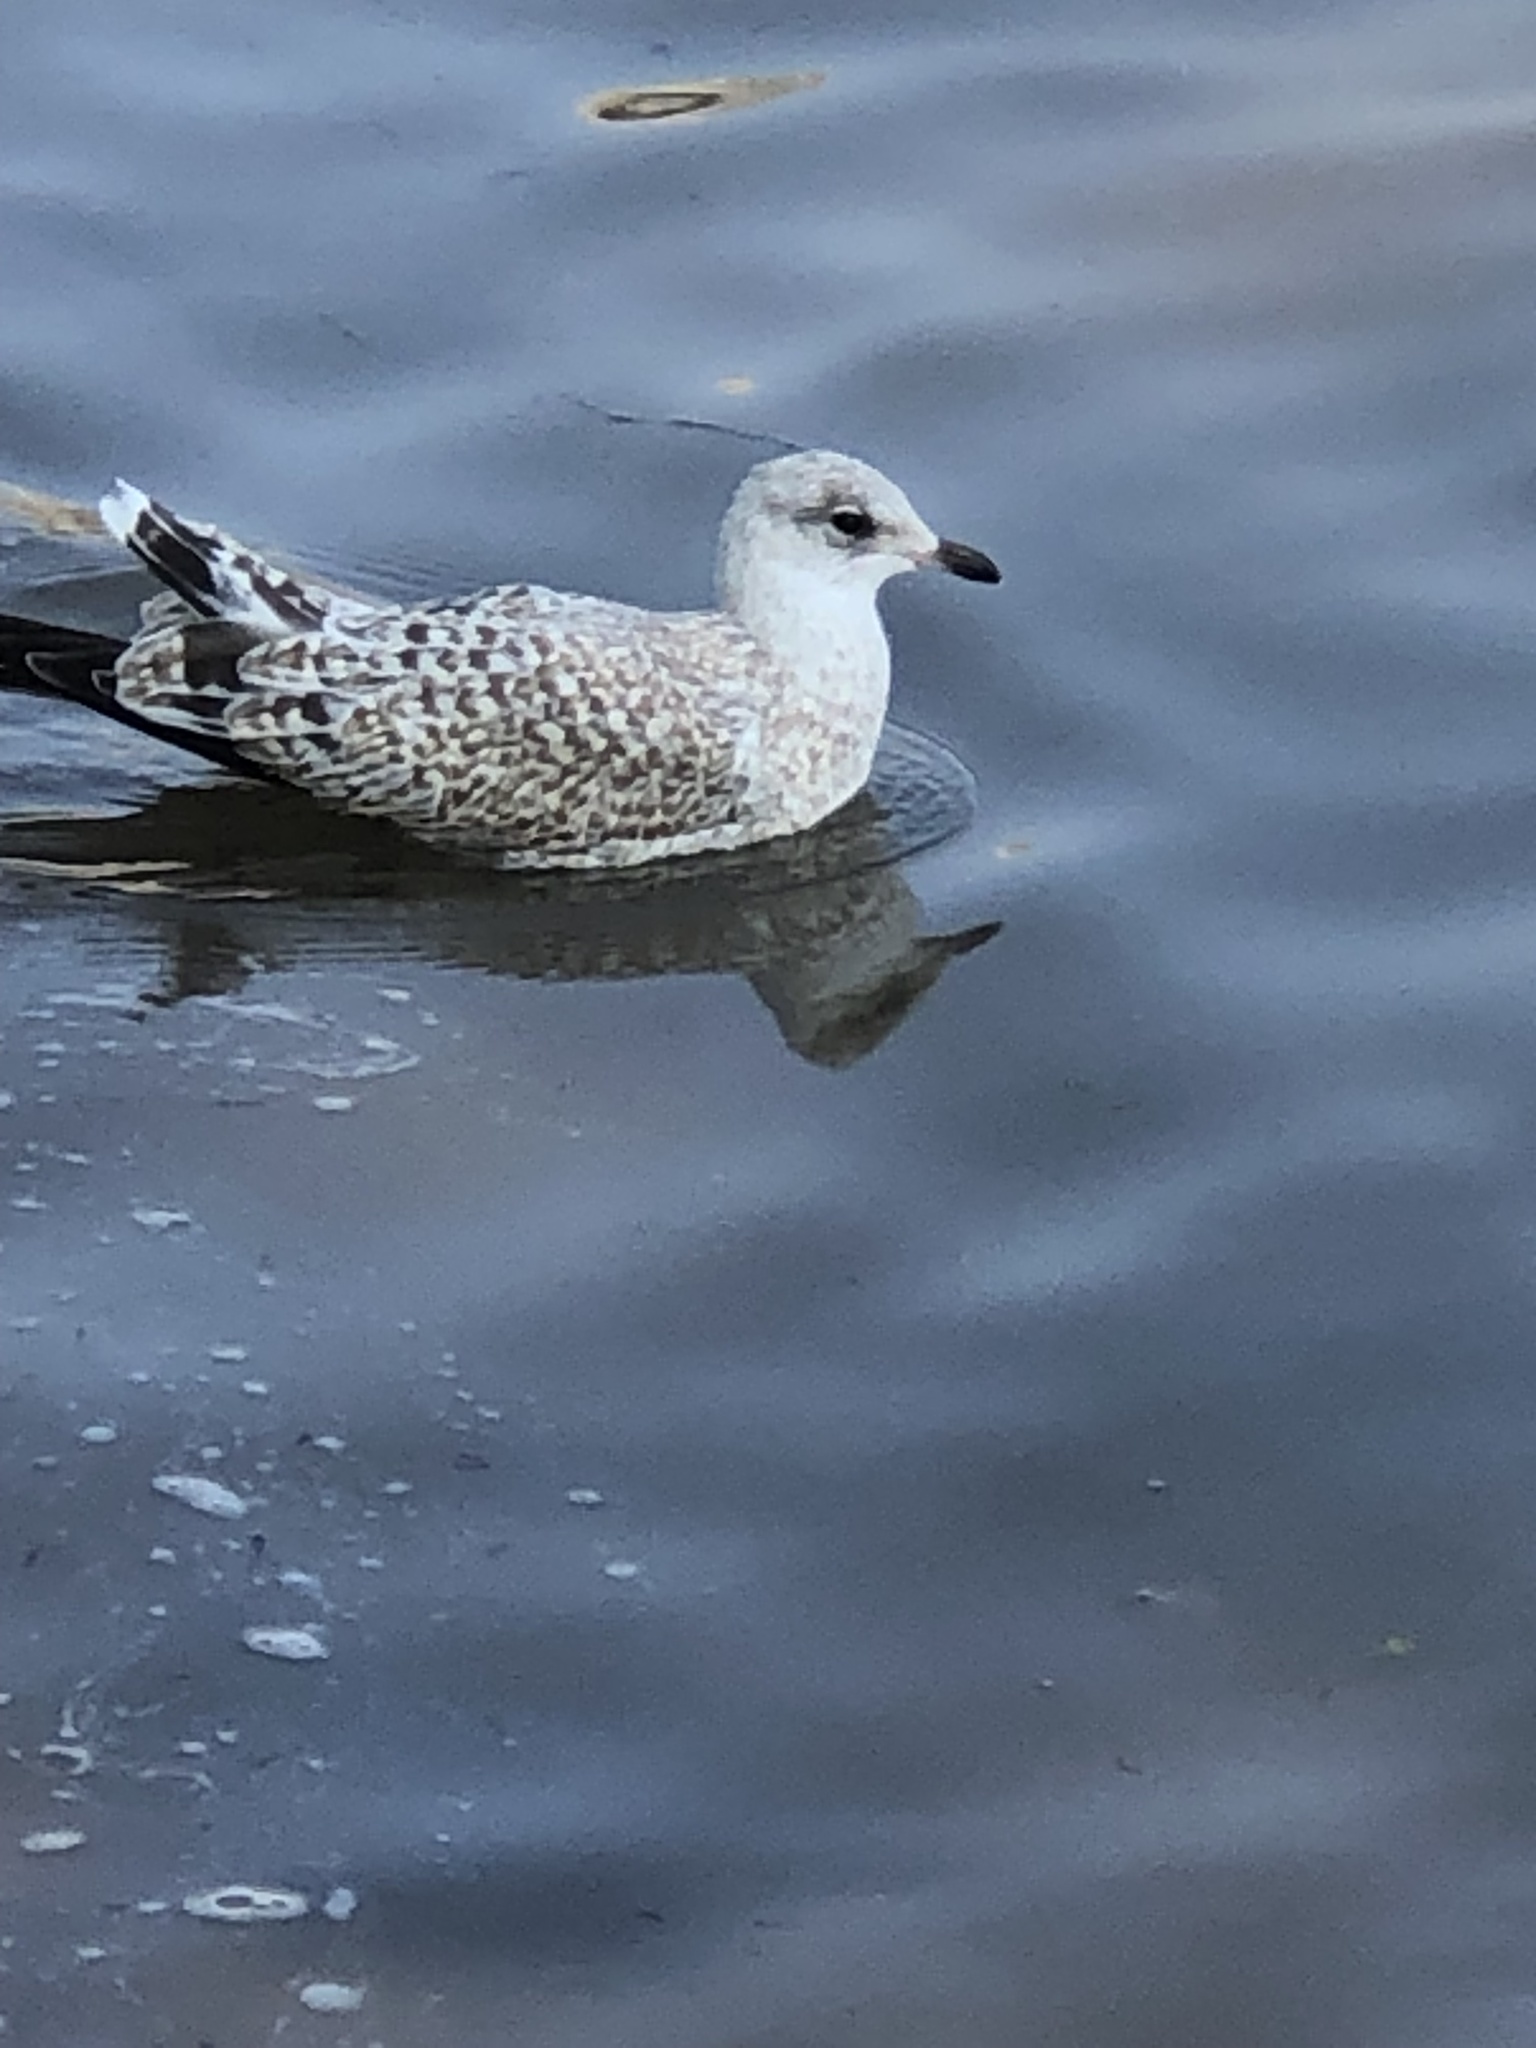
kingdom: Animalia
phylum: Chordata
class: Aves
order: Charadriiformes
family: Laridae
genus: Larus
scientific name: Larus delawarensis
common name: Ring-billed gull
